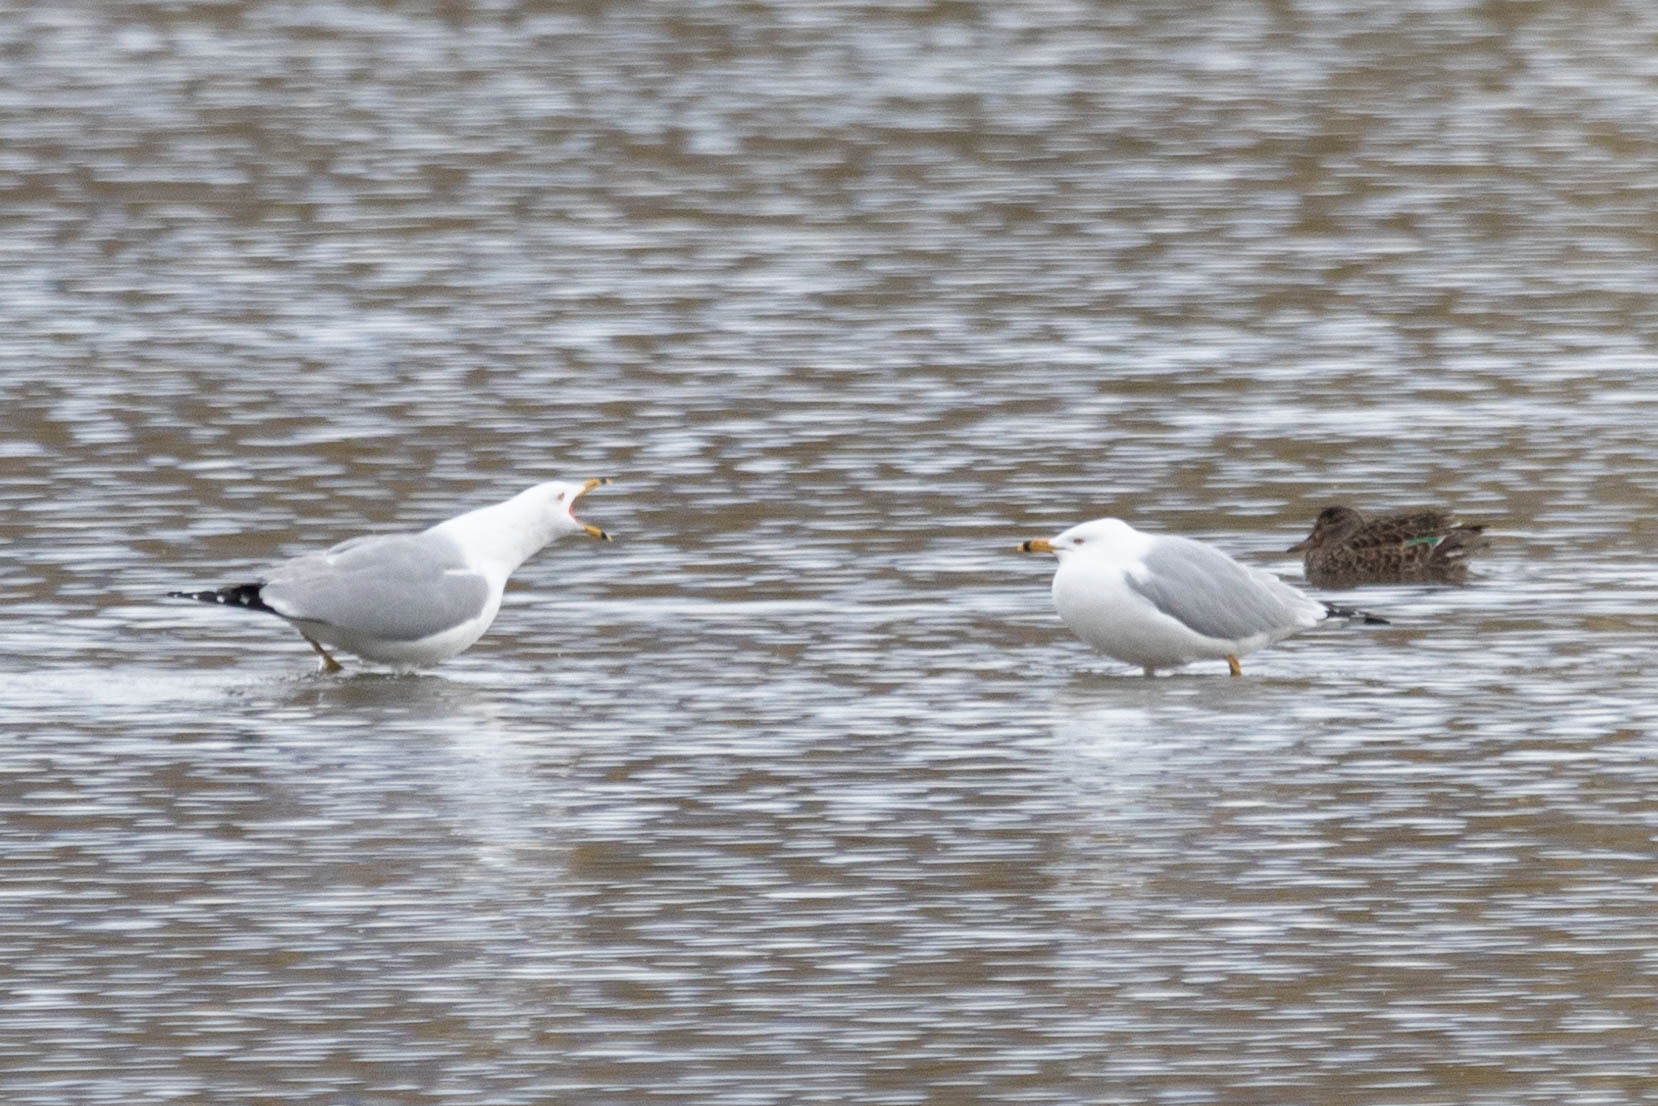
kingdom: Animalia
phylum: Chordata
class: Aves
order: Charadriiformes
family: Laridae
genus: Larus
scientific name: Larus delawarensis
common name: Ring-billed gull
